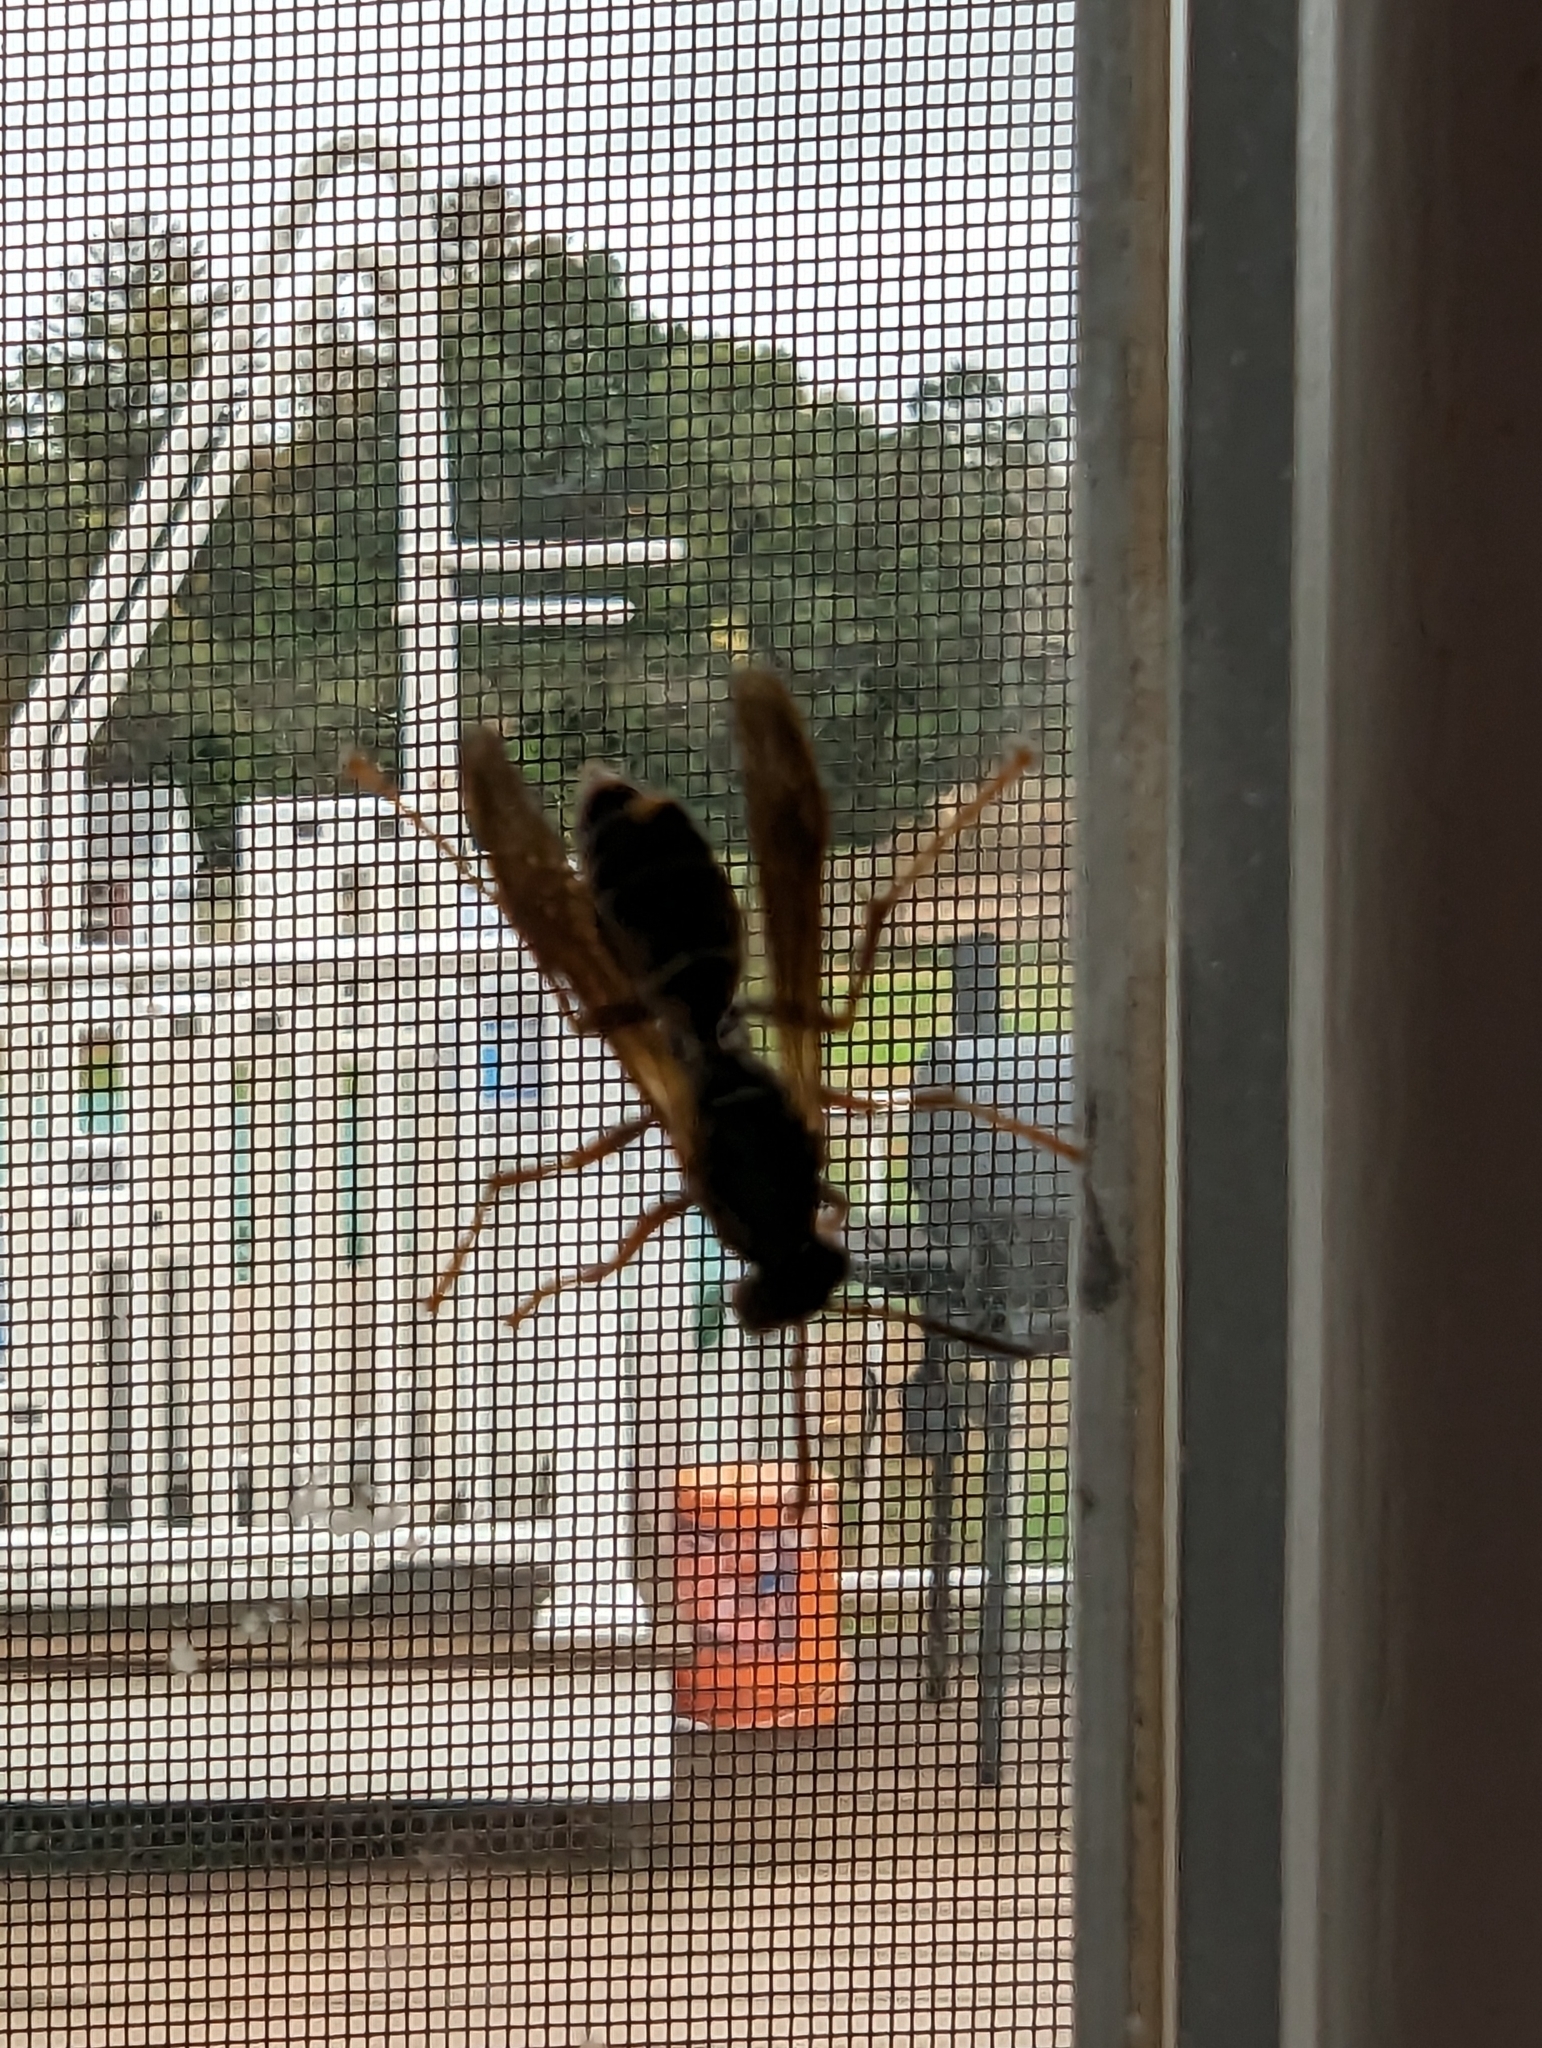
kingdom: Animalia
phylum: Arthropoda
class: Insecta
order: Hymenoptera
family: Eumenidae
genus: Polistes
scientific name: Polistes fuscatus
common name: Dark paper wasp
